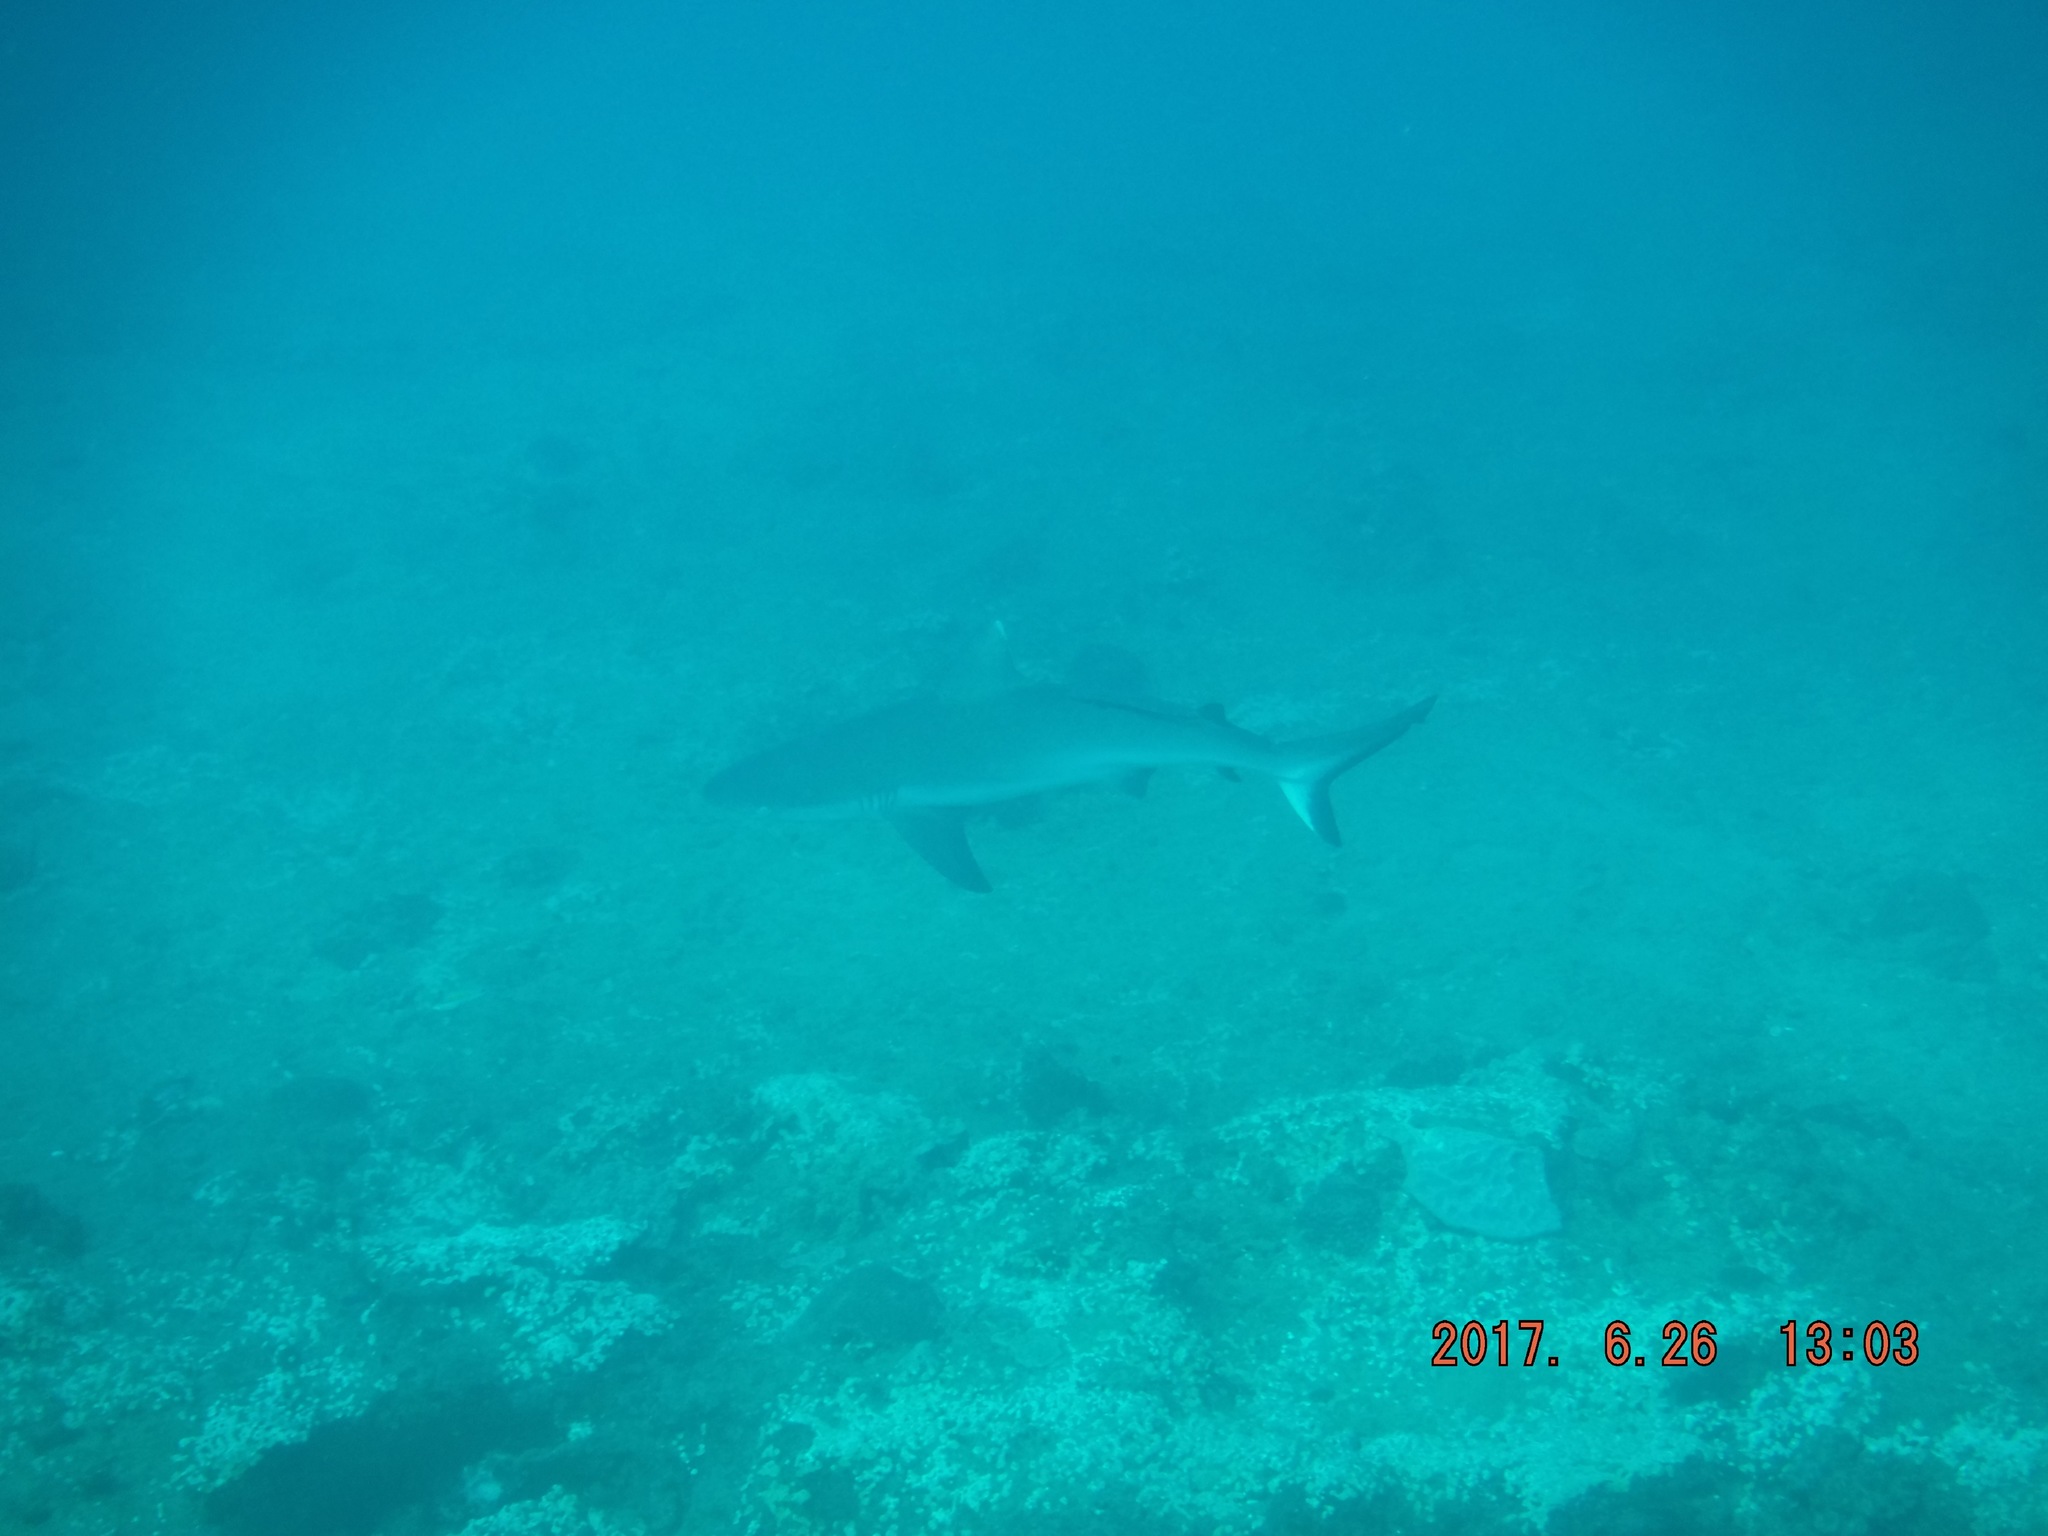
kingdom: Animalia
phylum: Chordata
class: Elasmobranchii
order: Carcharhiniformes
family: Carcharhinidae
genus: Carcharhinus
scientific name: Carcharhinus amblyrhynchos
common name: Grey reef shark
